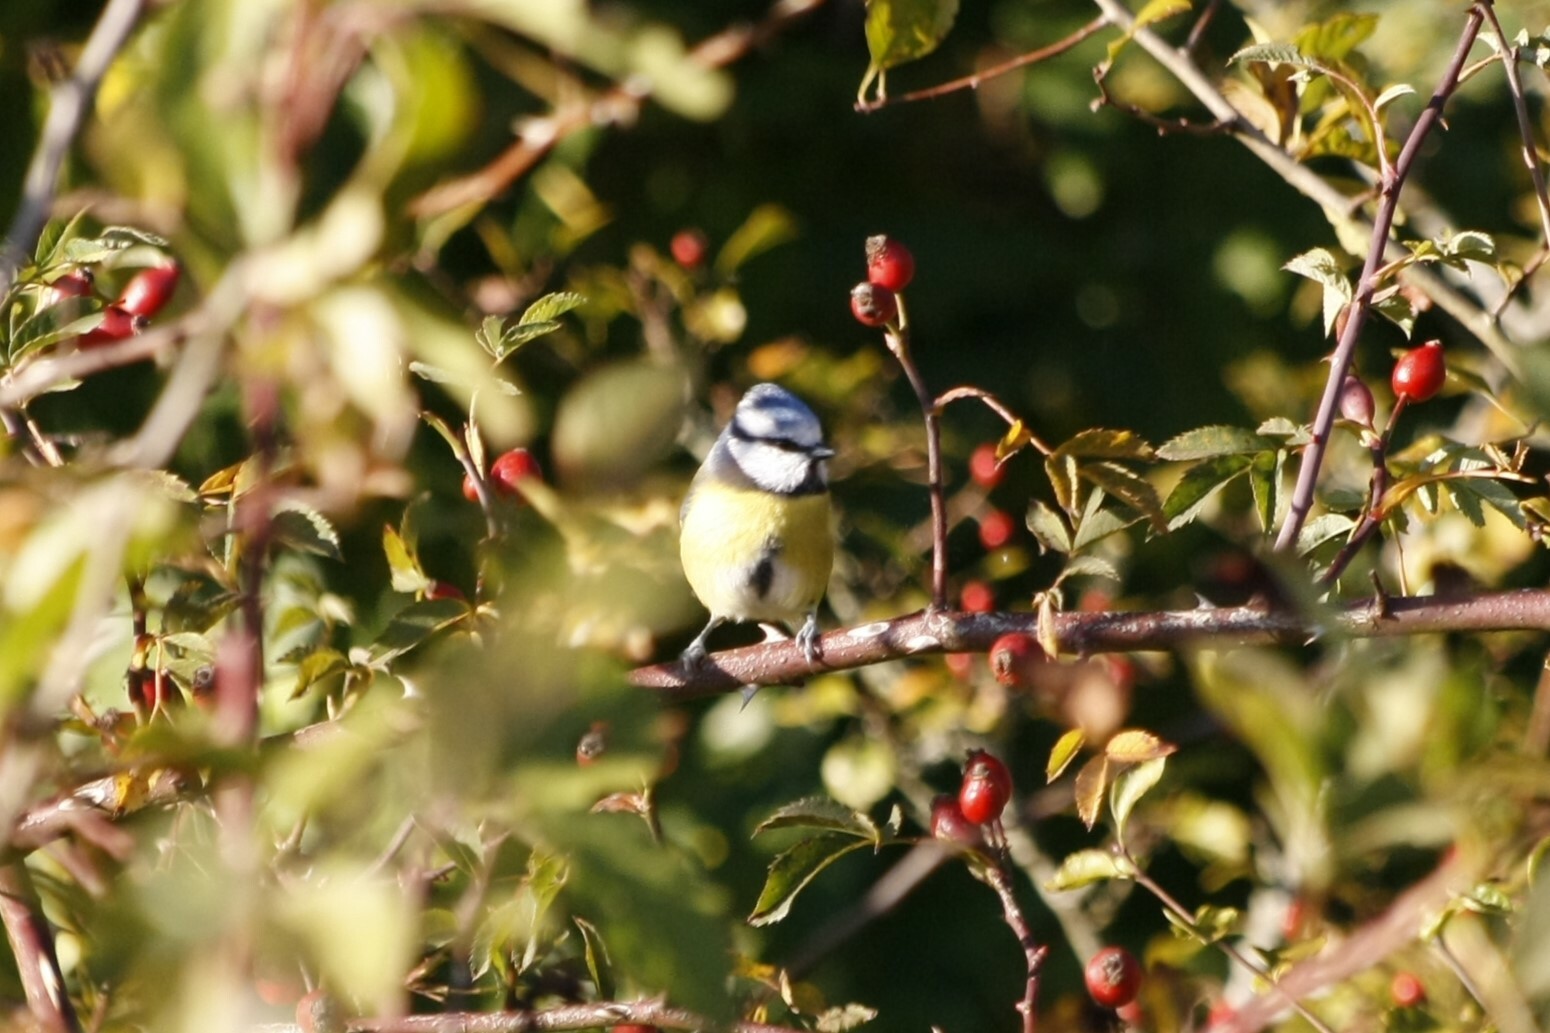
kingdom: Animalia
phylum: Chordata
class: Aves
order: Passeriformes
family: Paridae
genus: Cyanistes
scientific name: Cyanistes caeruleus
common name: Eurasian blue tit
